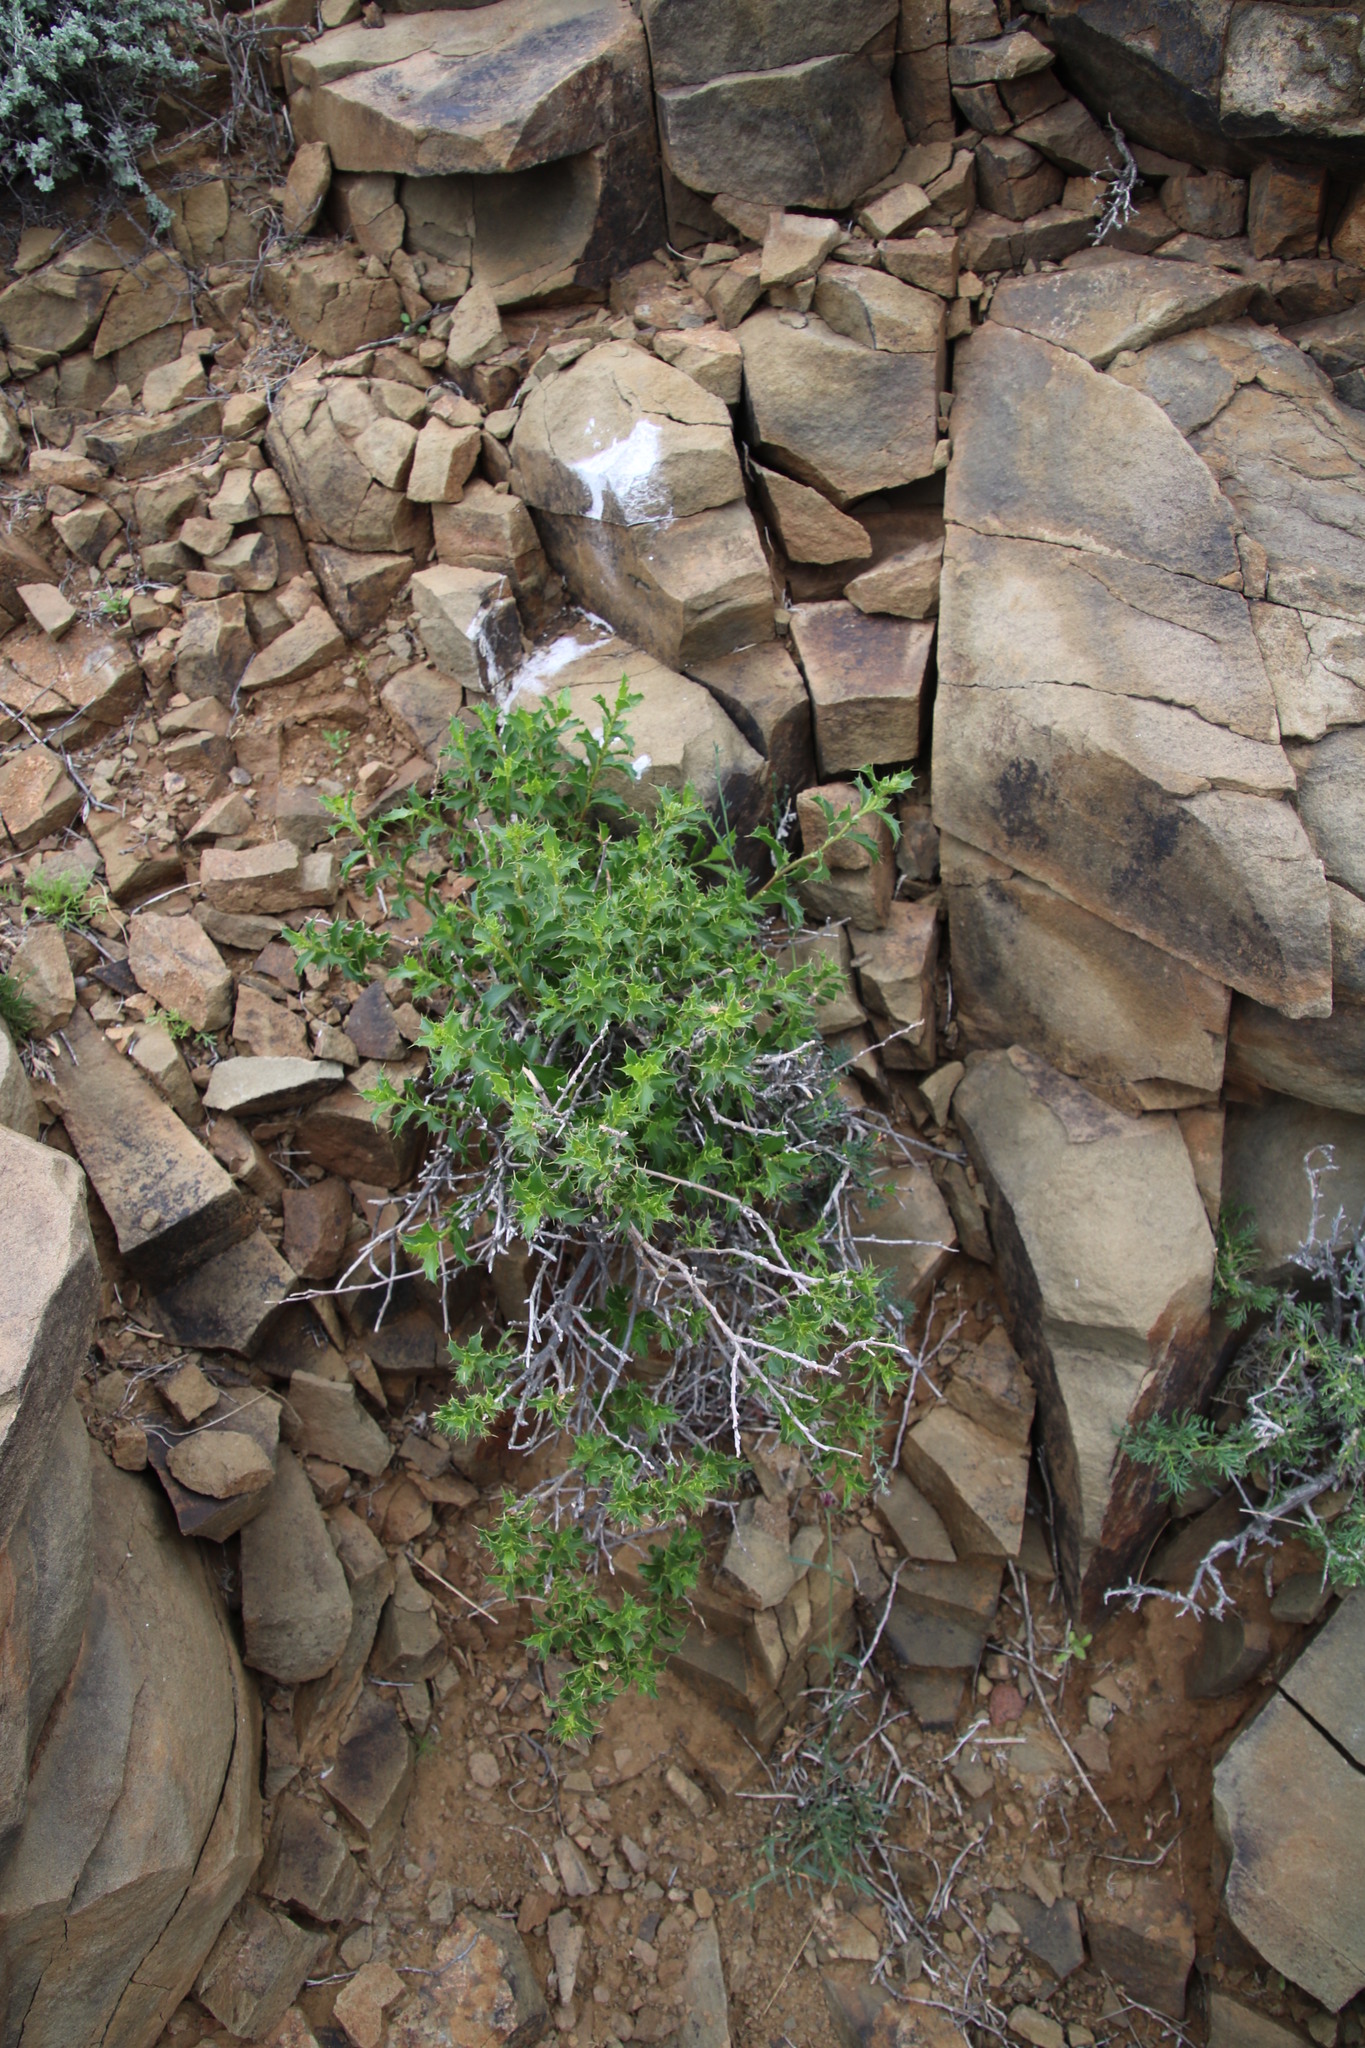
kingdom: Plantae
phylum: Tracheophyta
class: Magnoliopsida
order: Asterales
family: Asteraceae
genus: Berkheya
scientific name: Berkheya spinosa
